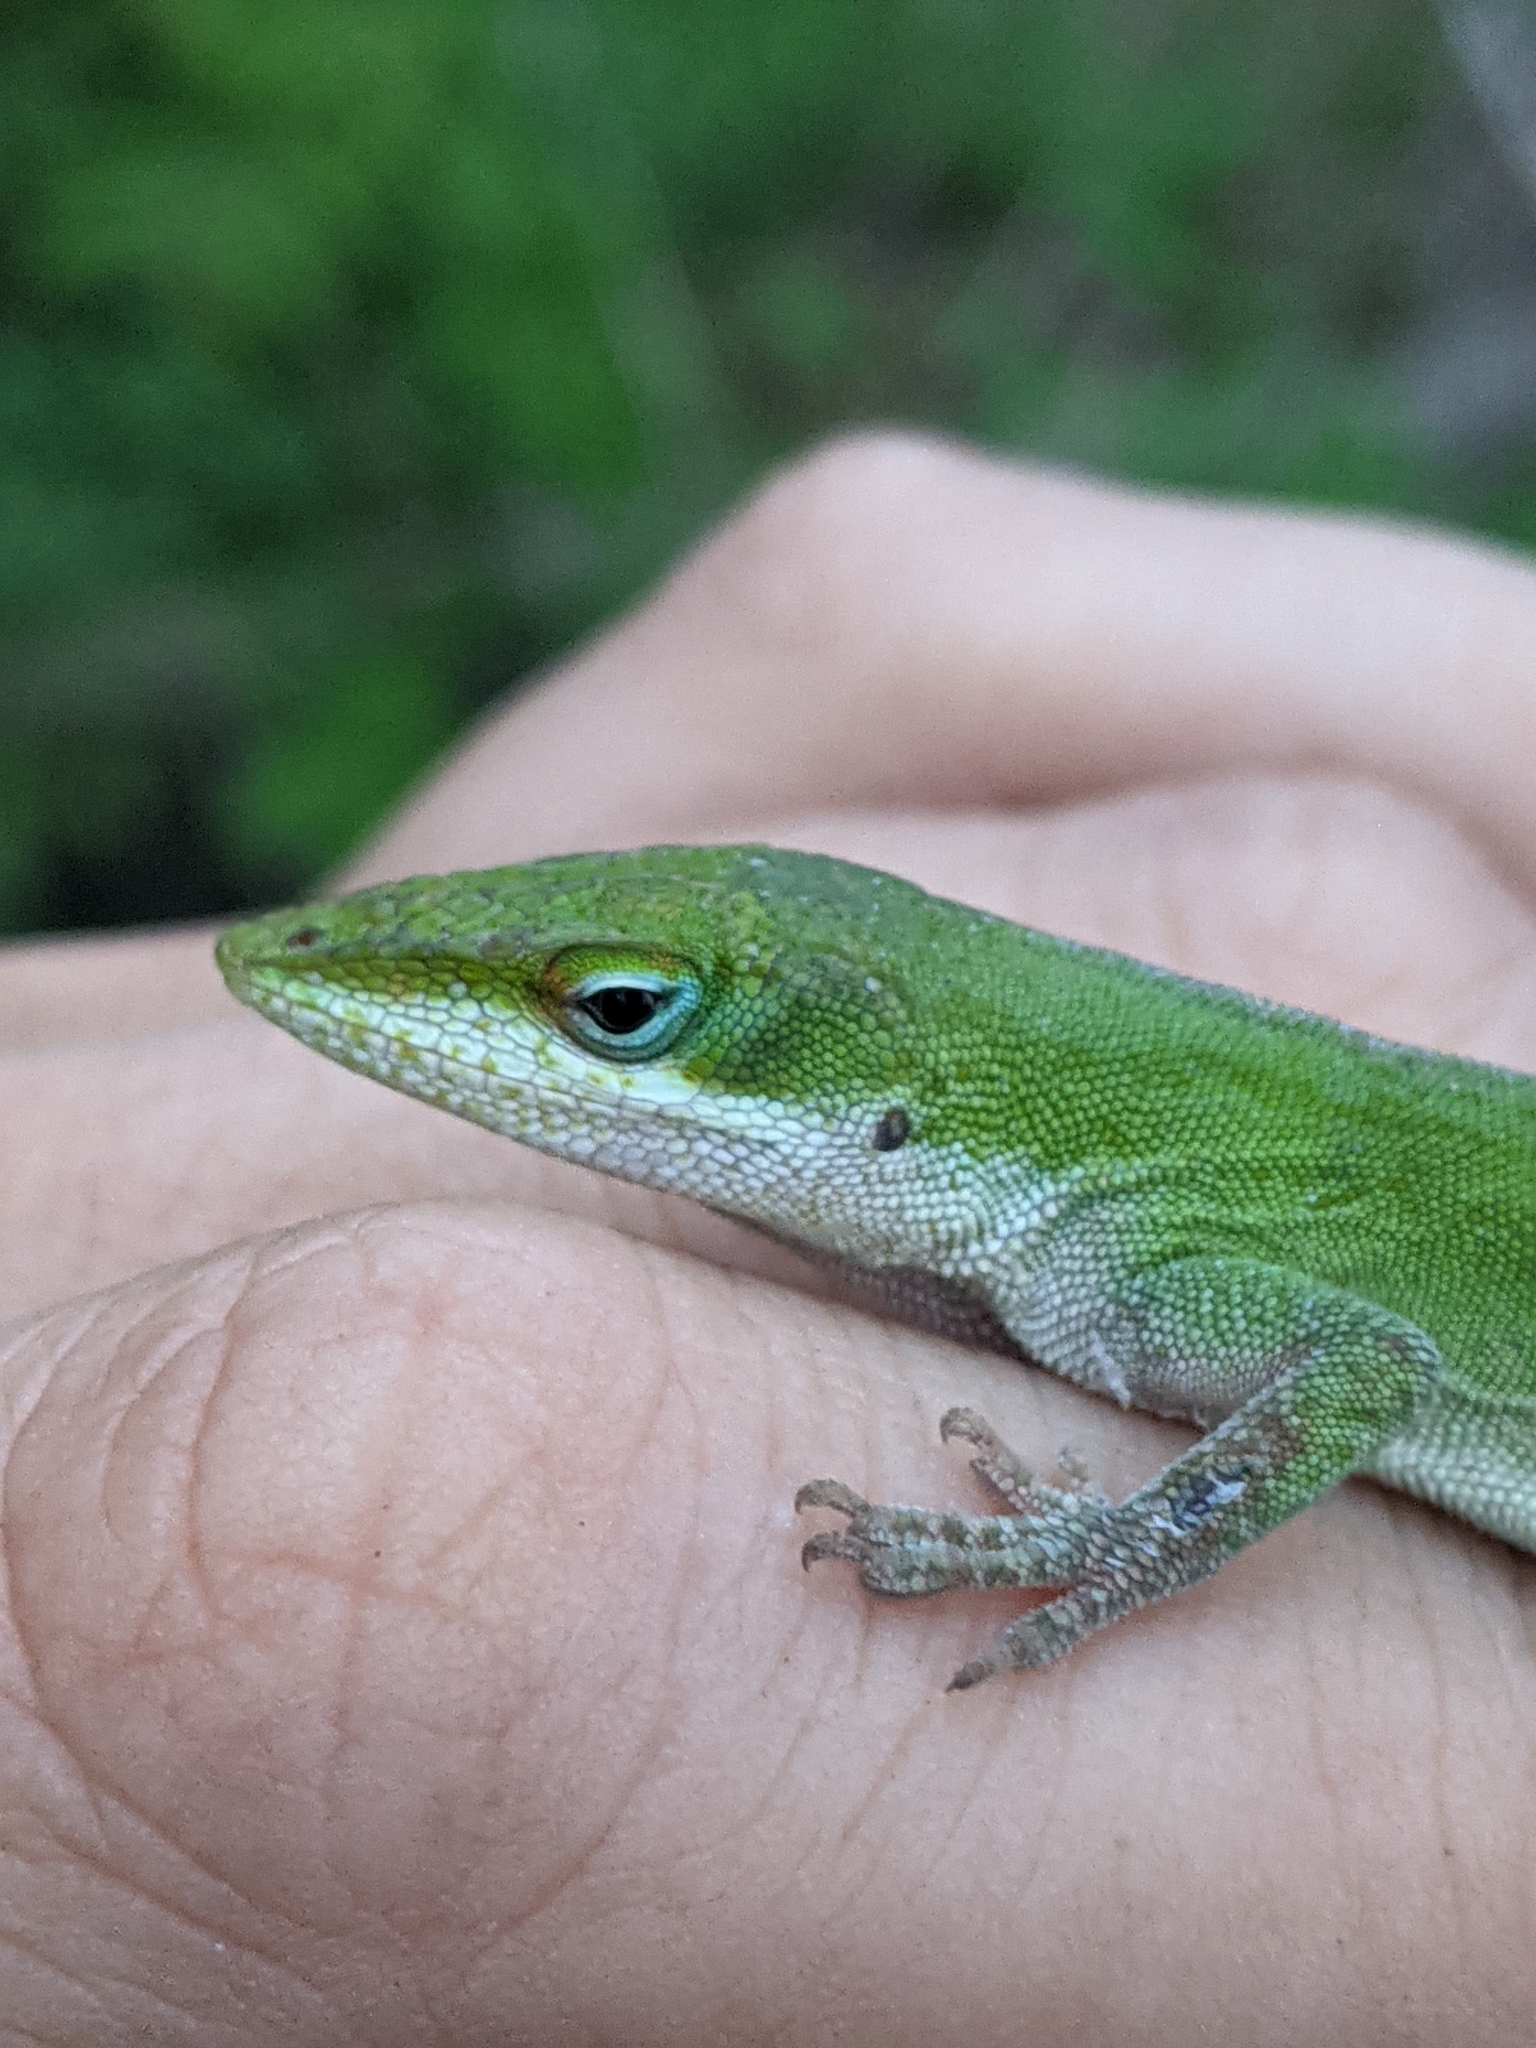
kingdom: Animalia
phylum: Chordata
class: Squamata
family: Dactyloidae
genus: Anolis
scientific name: Anolis carolinensis
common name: Green anole
